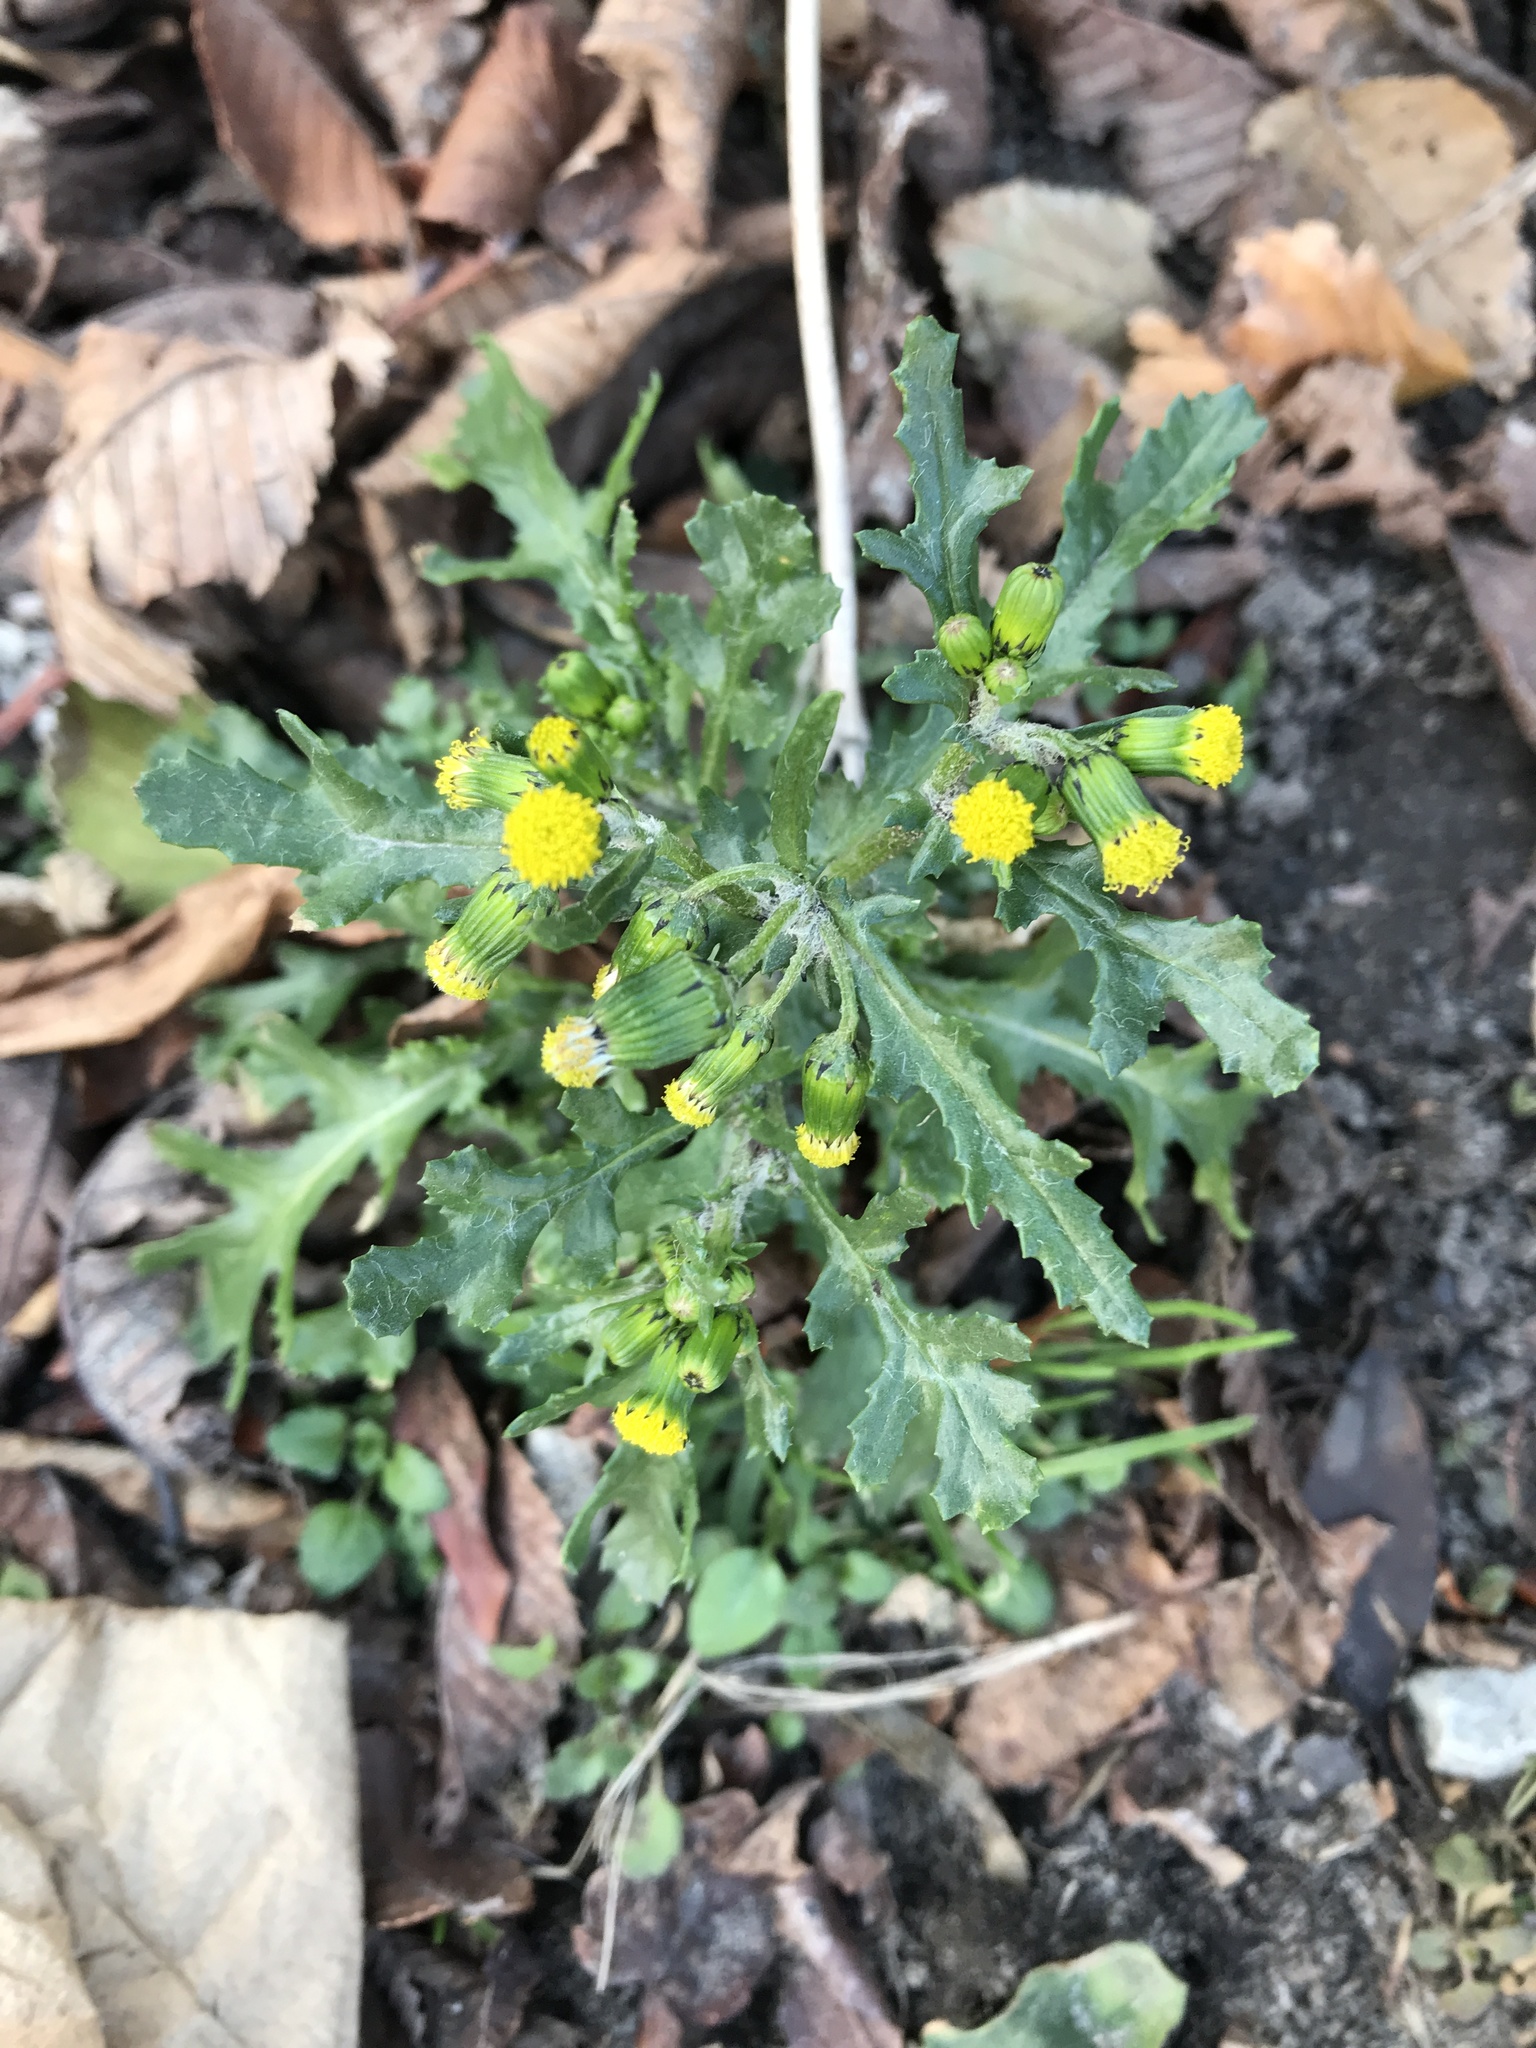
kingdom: Plantae
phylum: Tracheophyta
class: Magnoliopsida
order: Asterales
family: Asteraceae
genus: Senecio
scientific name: Senecio vulgaris
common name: Old-man-in-the-spring
